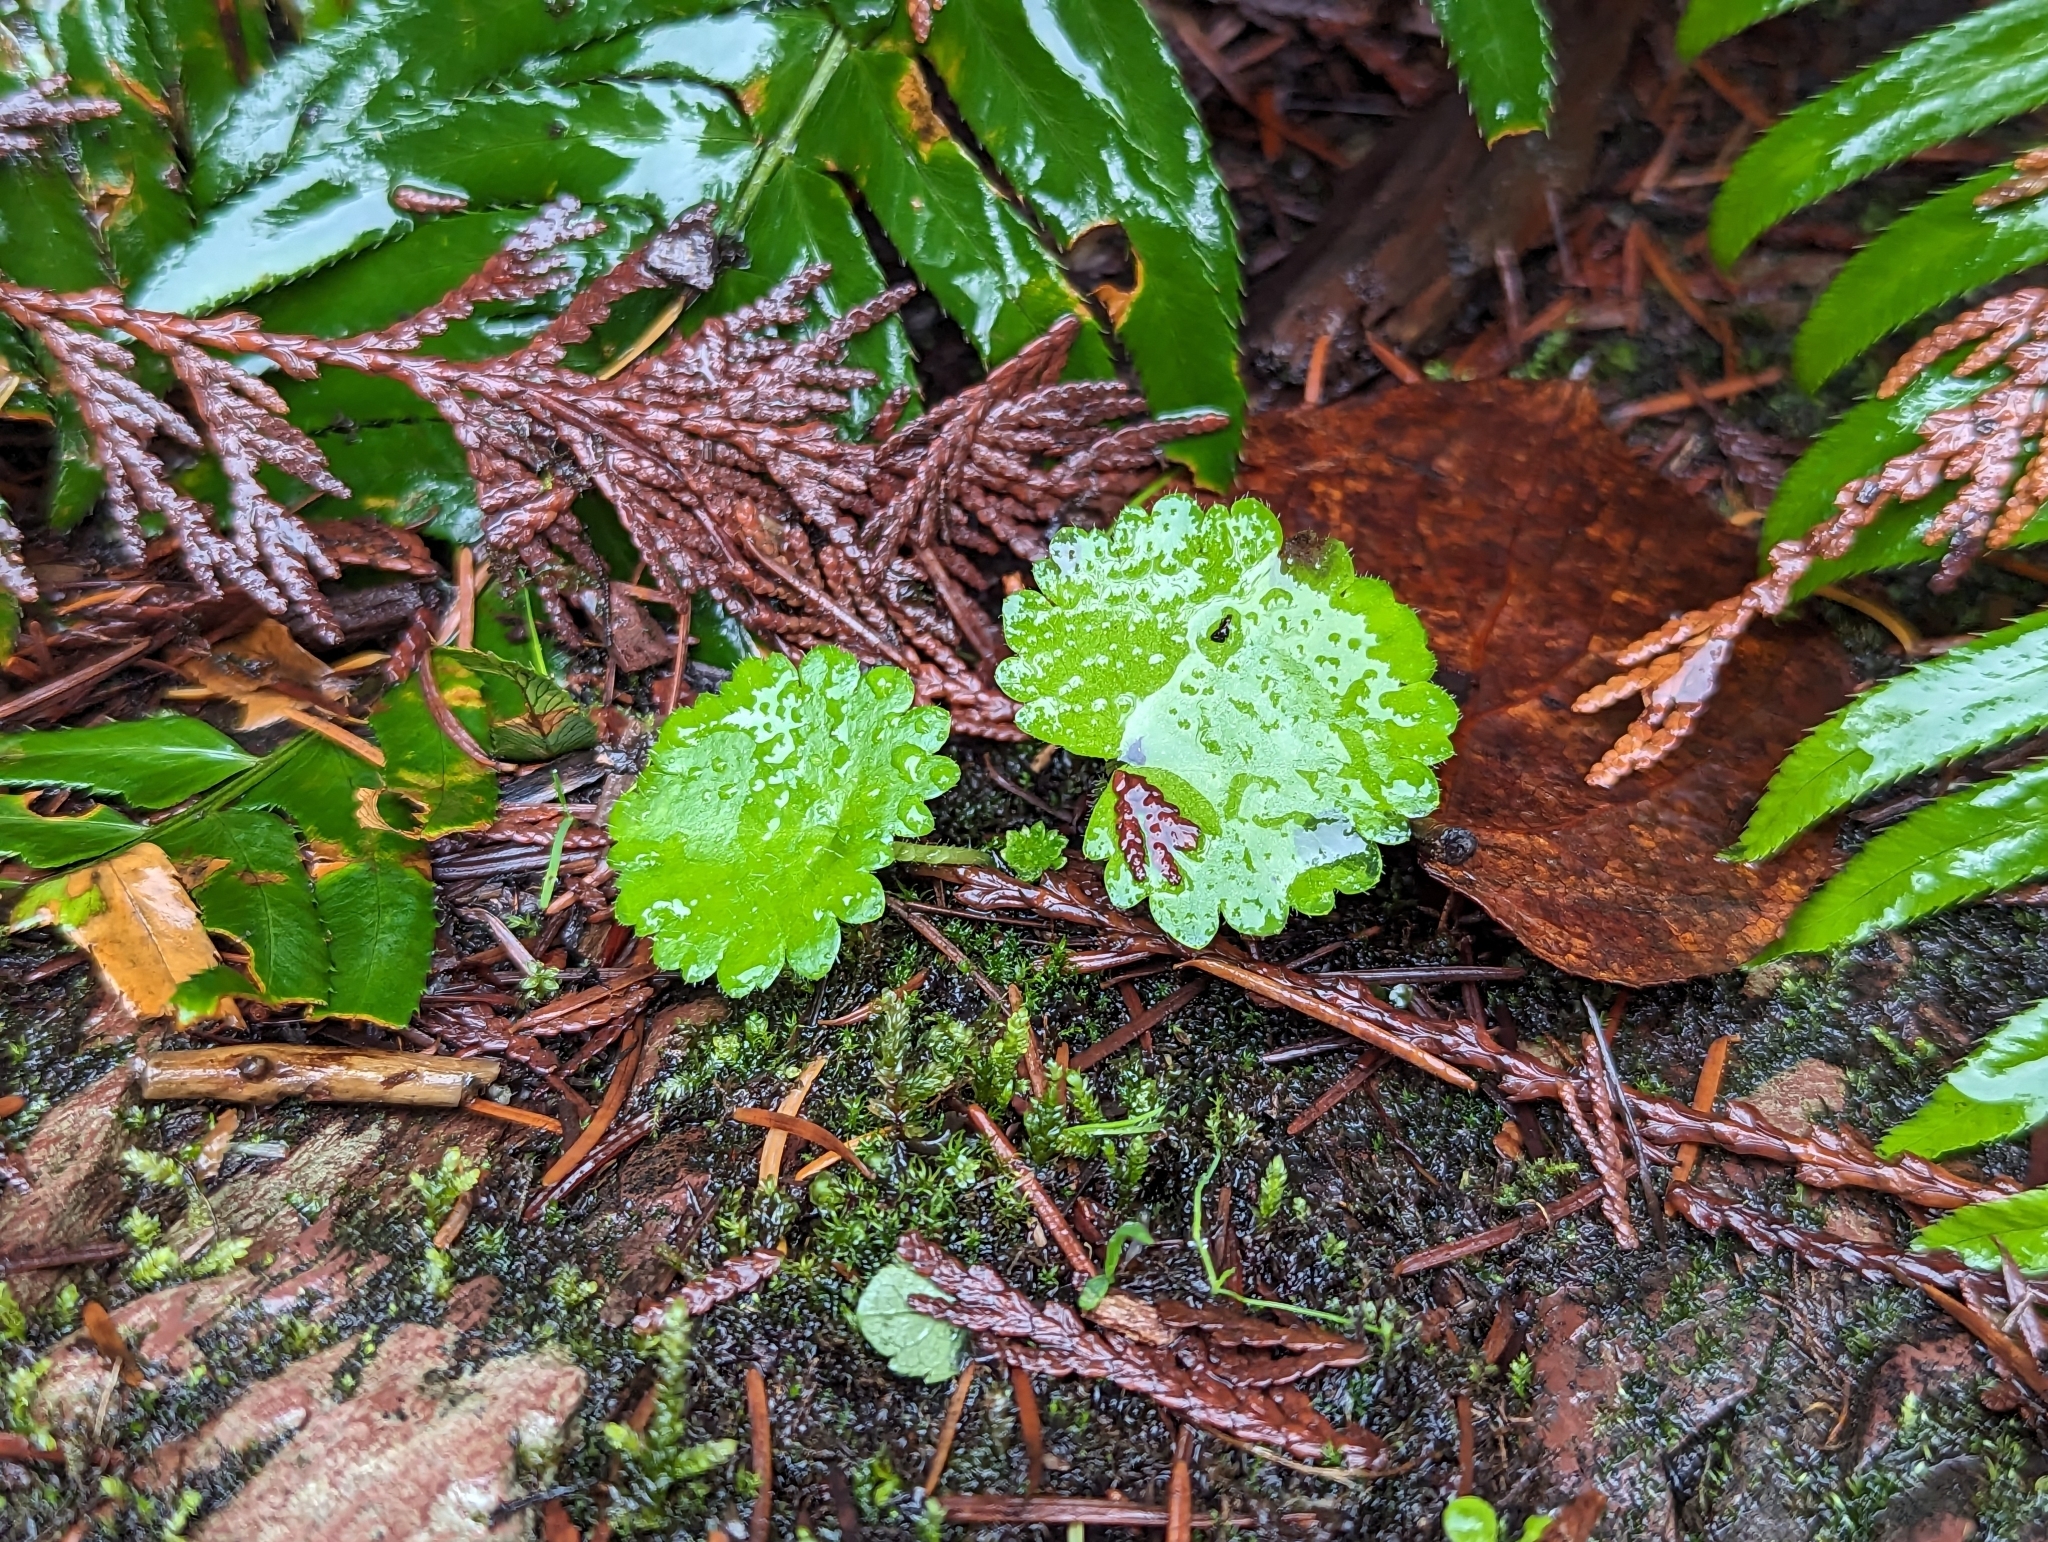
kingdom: Plantae
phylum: Tracheophyta
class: Magnoliopsida
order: Saxifragales
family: Saxifragaceae
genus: Micranthes
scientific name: Micranthes mertensiana
